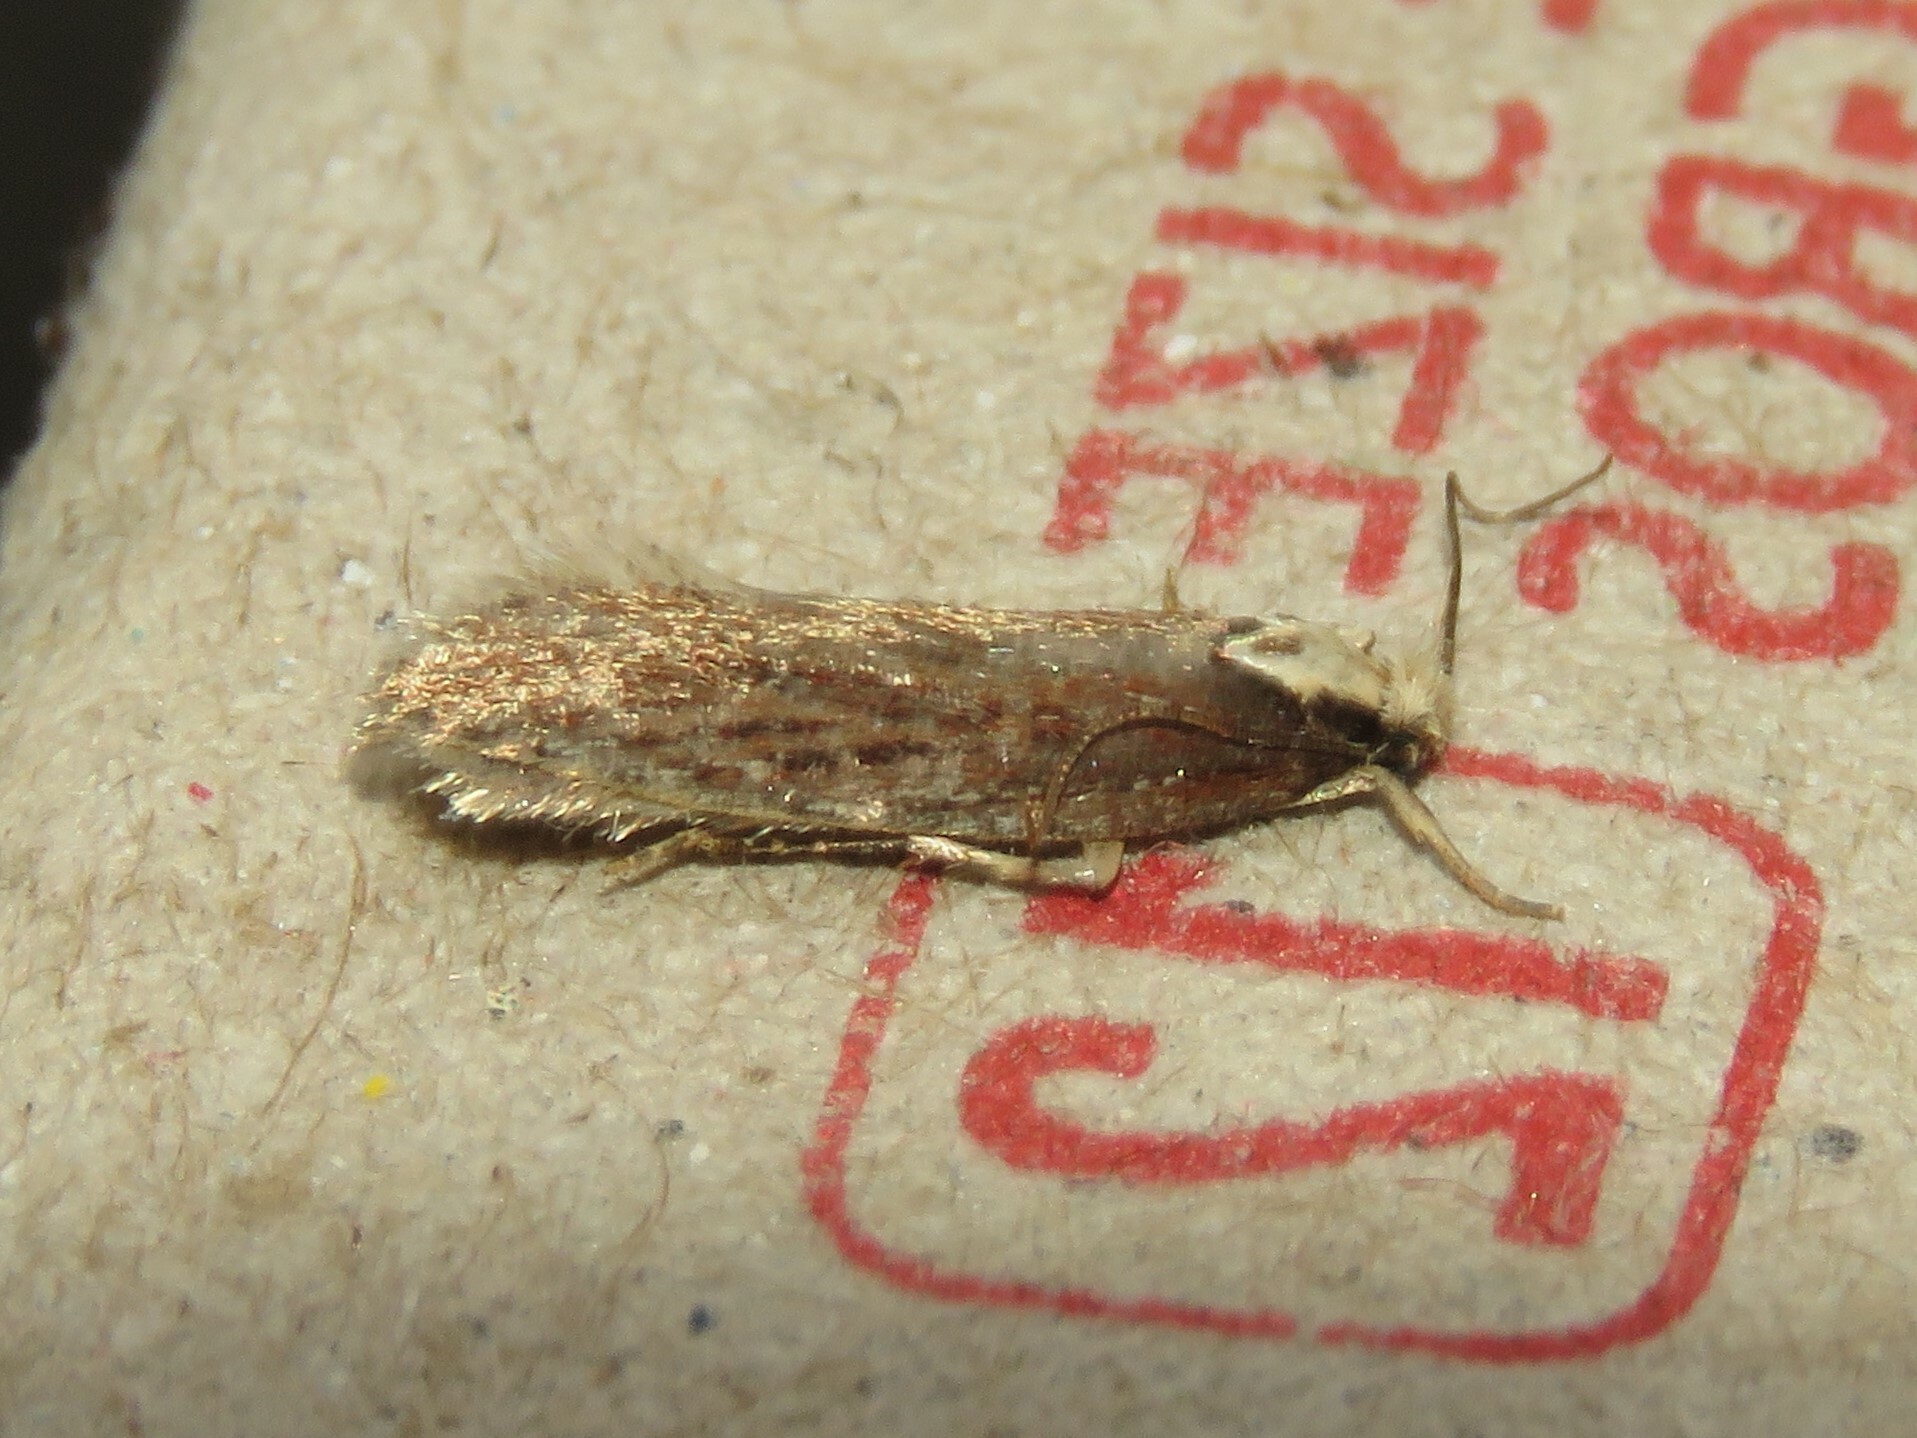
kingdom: Animalia
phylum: Arthropoda
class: Insecta
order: Lepidoptera
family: Depressariidae
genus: Depressaria
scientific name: Depressaria alienella
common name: Yarrow webworm
